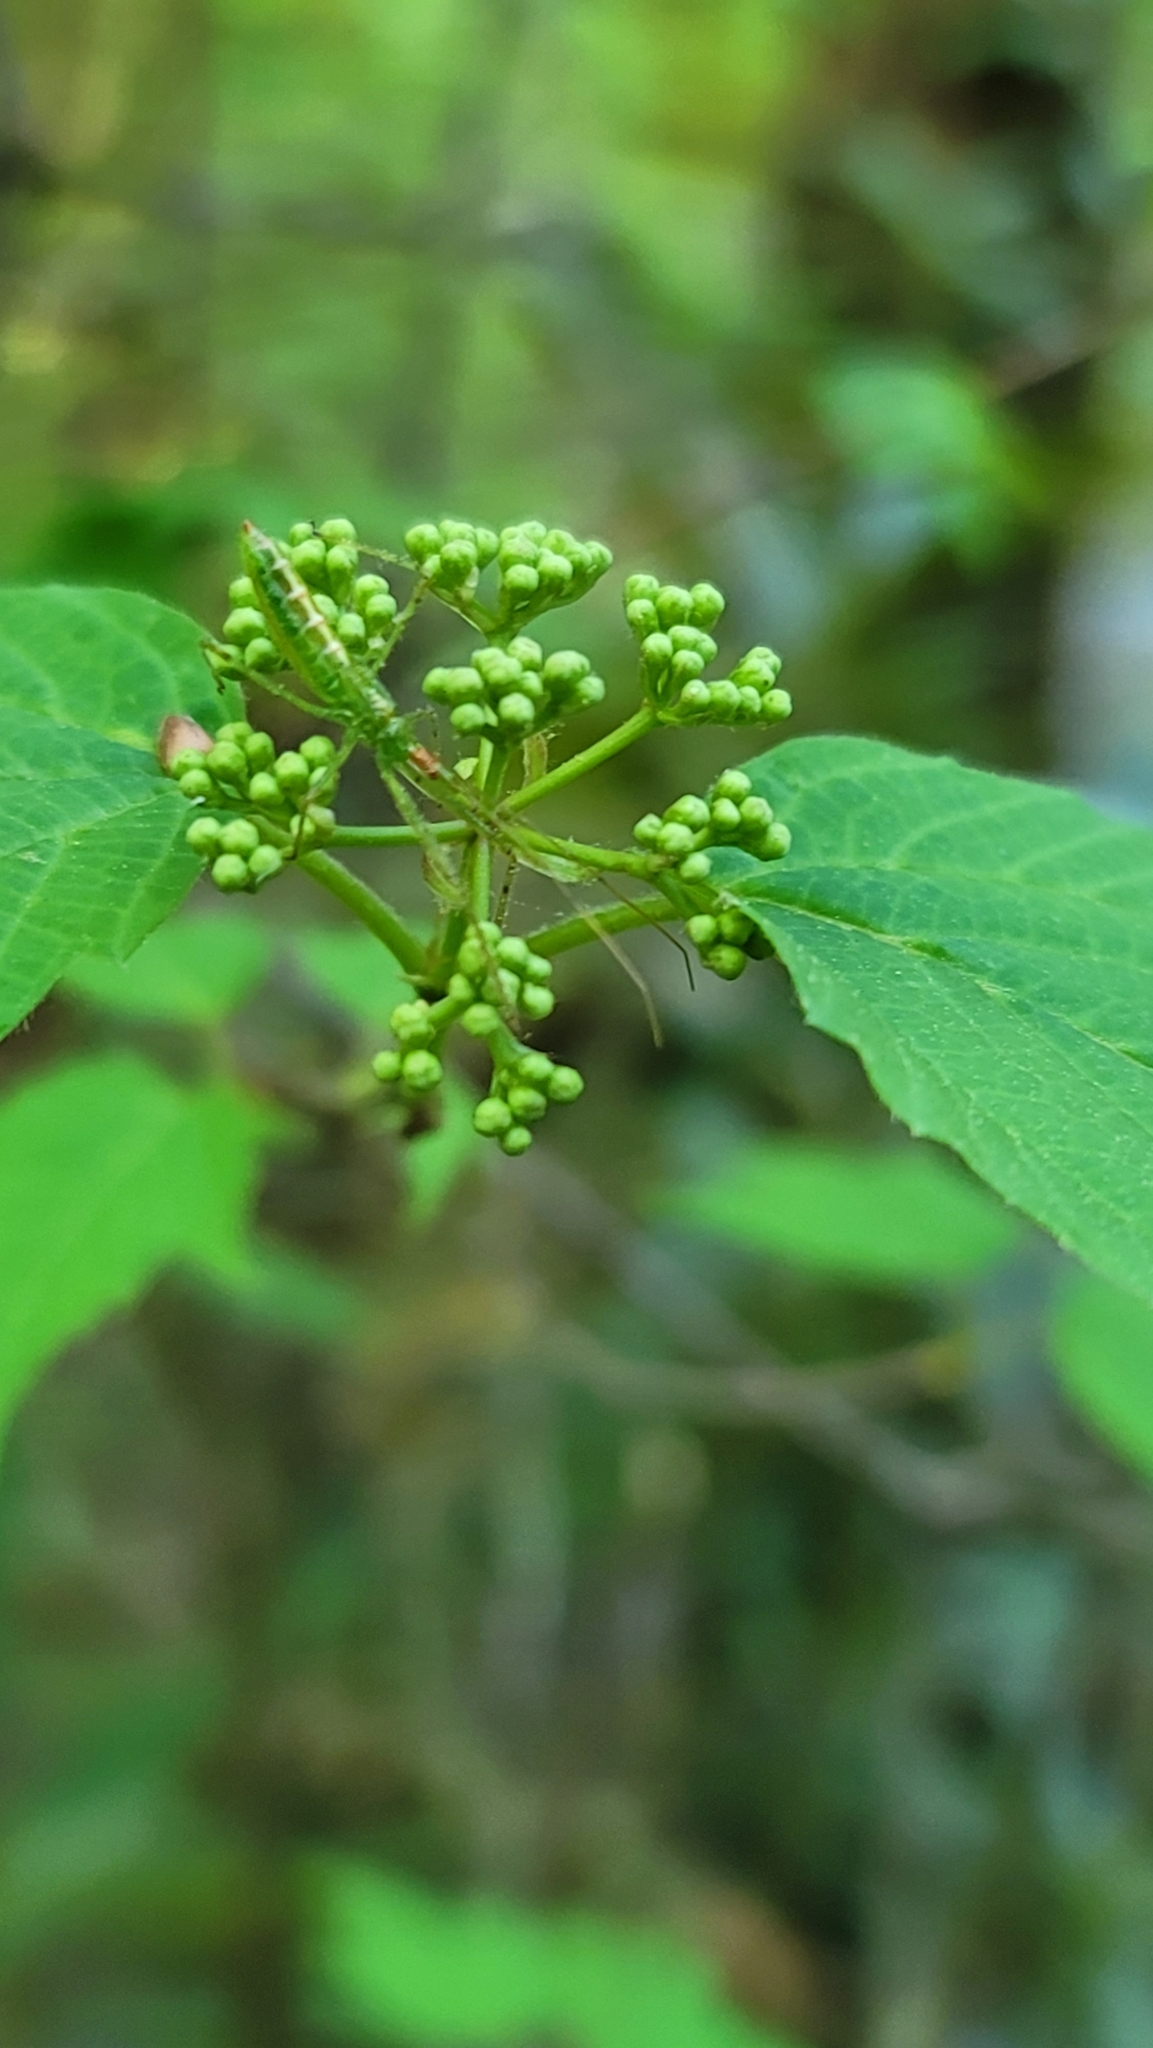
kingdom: Plantae
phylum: Tracheophyta
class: Magnoliopsida
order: Dipsacales
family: Viburnaceae
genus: Viburnum
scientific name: Viburnum acerifolium
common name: Dockmackie
